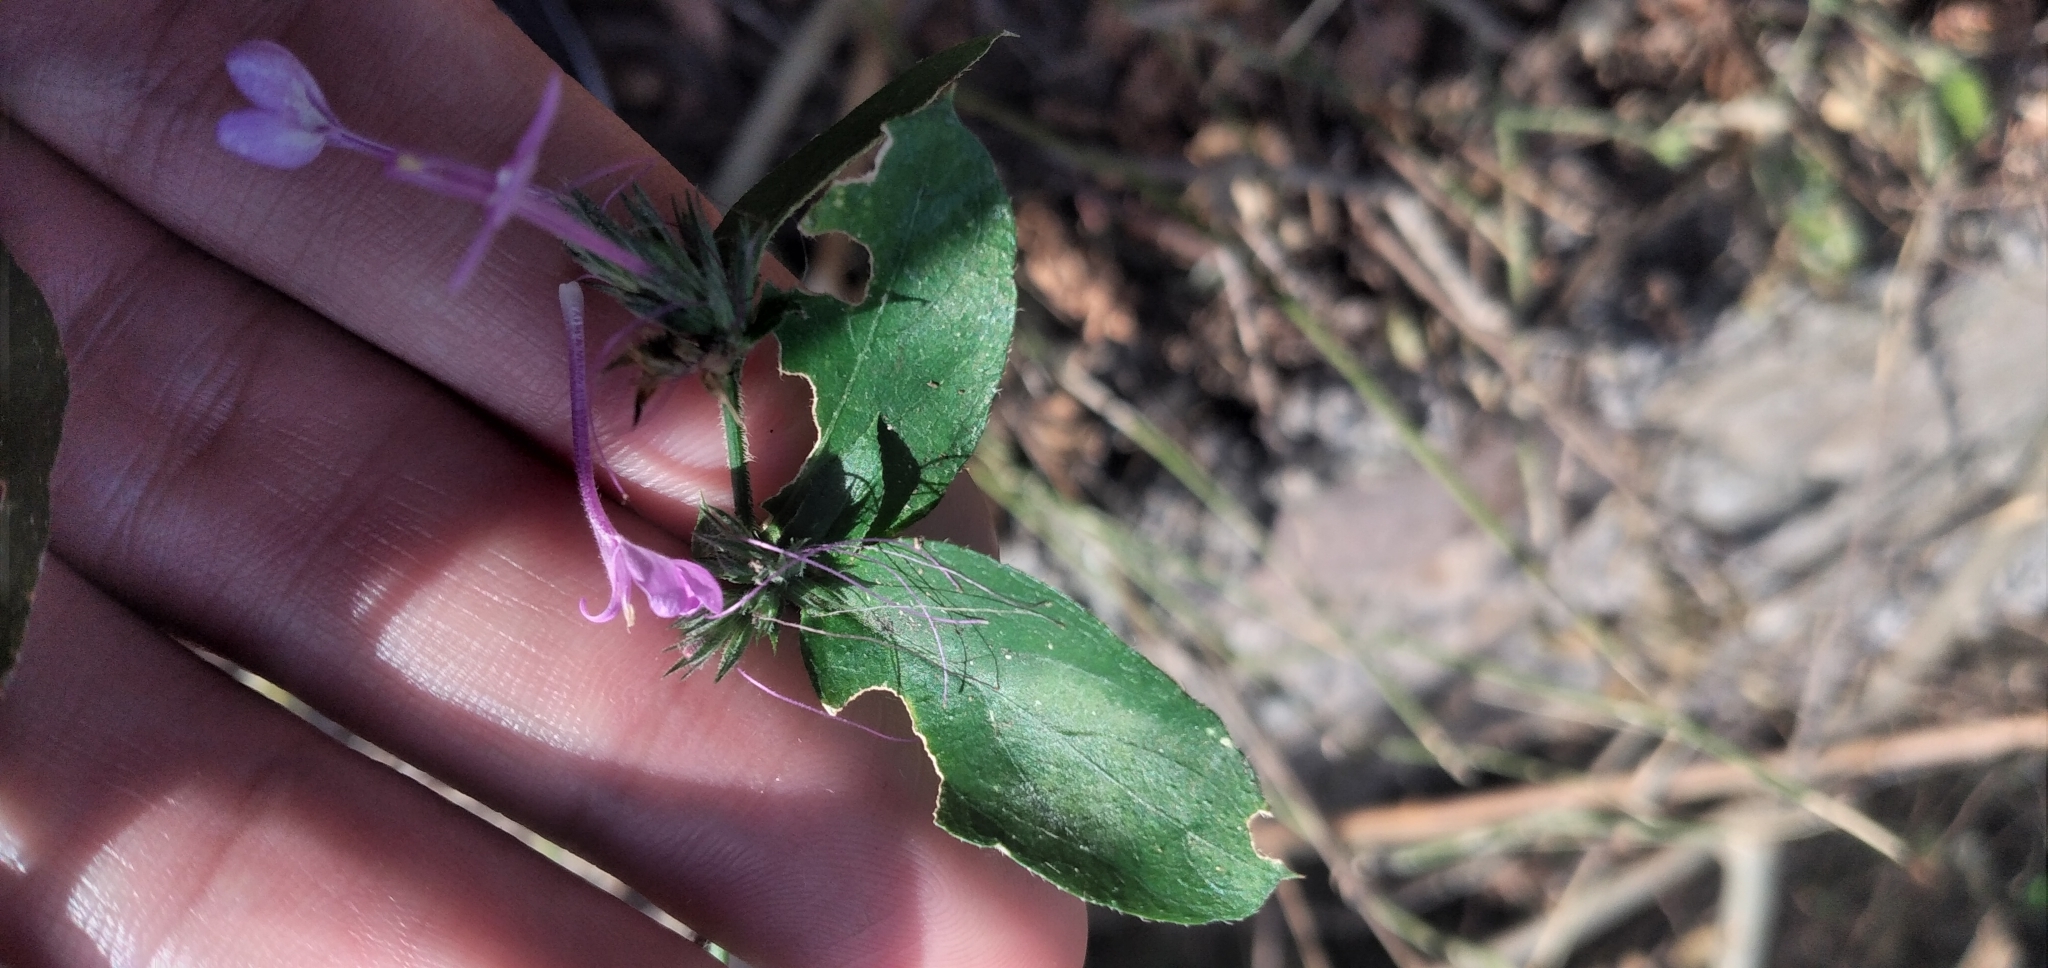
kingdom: Plantae
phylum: Tracheophyta
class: Magnoliopsida
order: Lamiales
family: Acanthaceae
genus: Justicia
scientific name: Justicia goudotii
